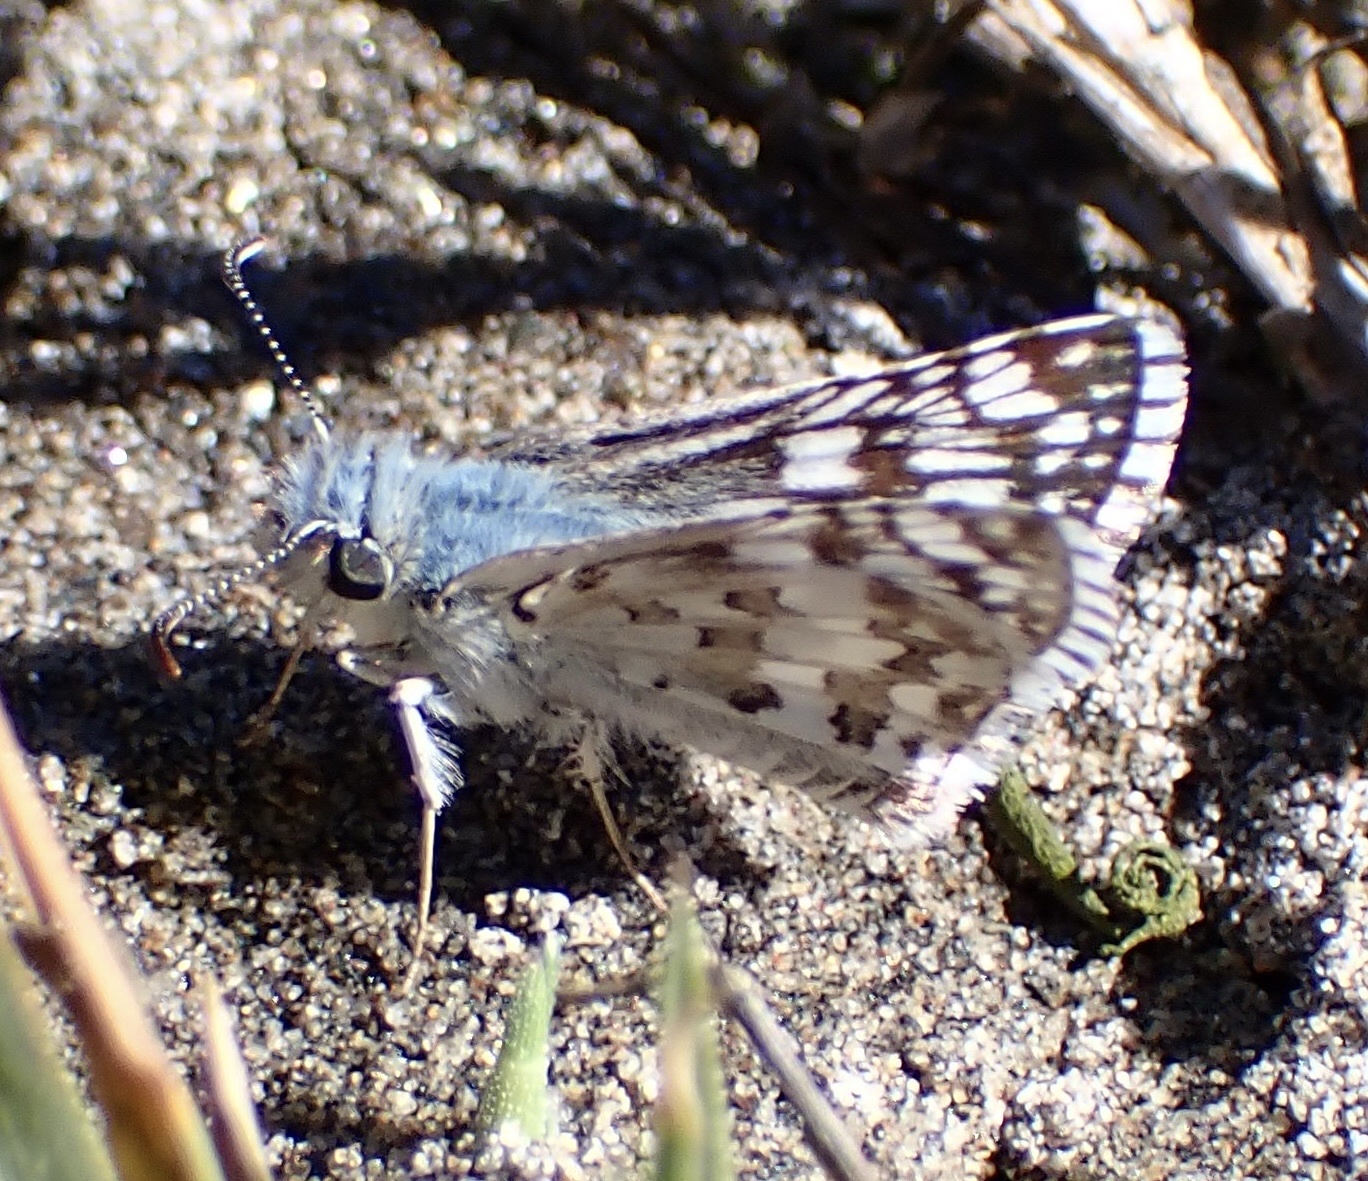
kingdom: Animalia
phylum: Arthropoda
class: Insecta
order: Lepidoptera
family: Hesperiidae
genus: Burnsius
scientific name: Burnsius communis
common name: Common checkered-skipper
